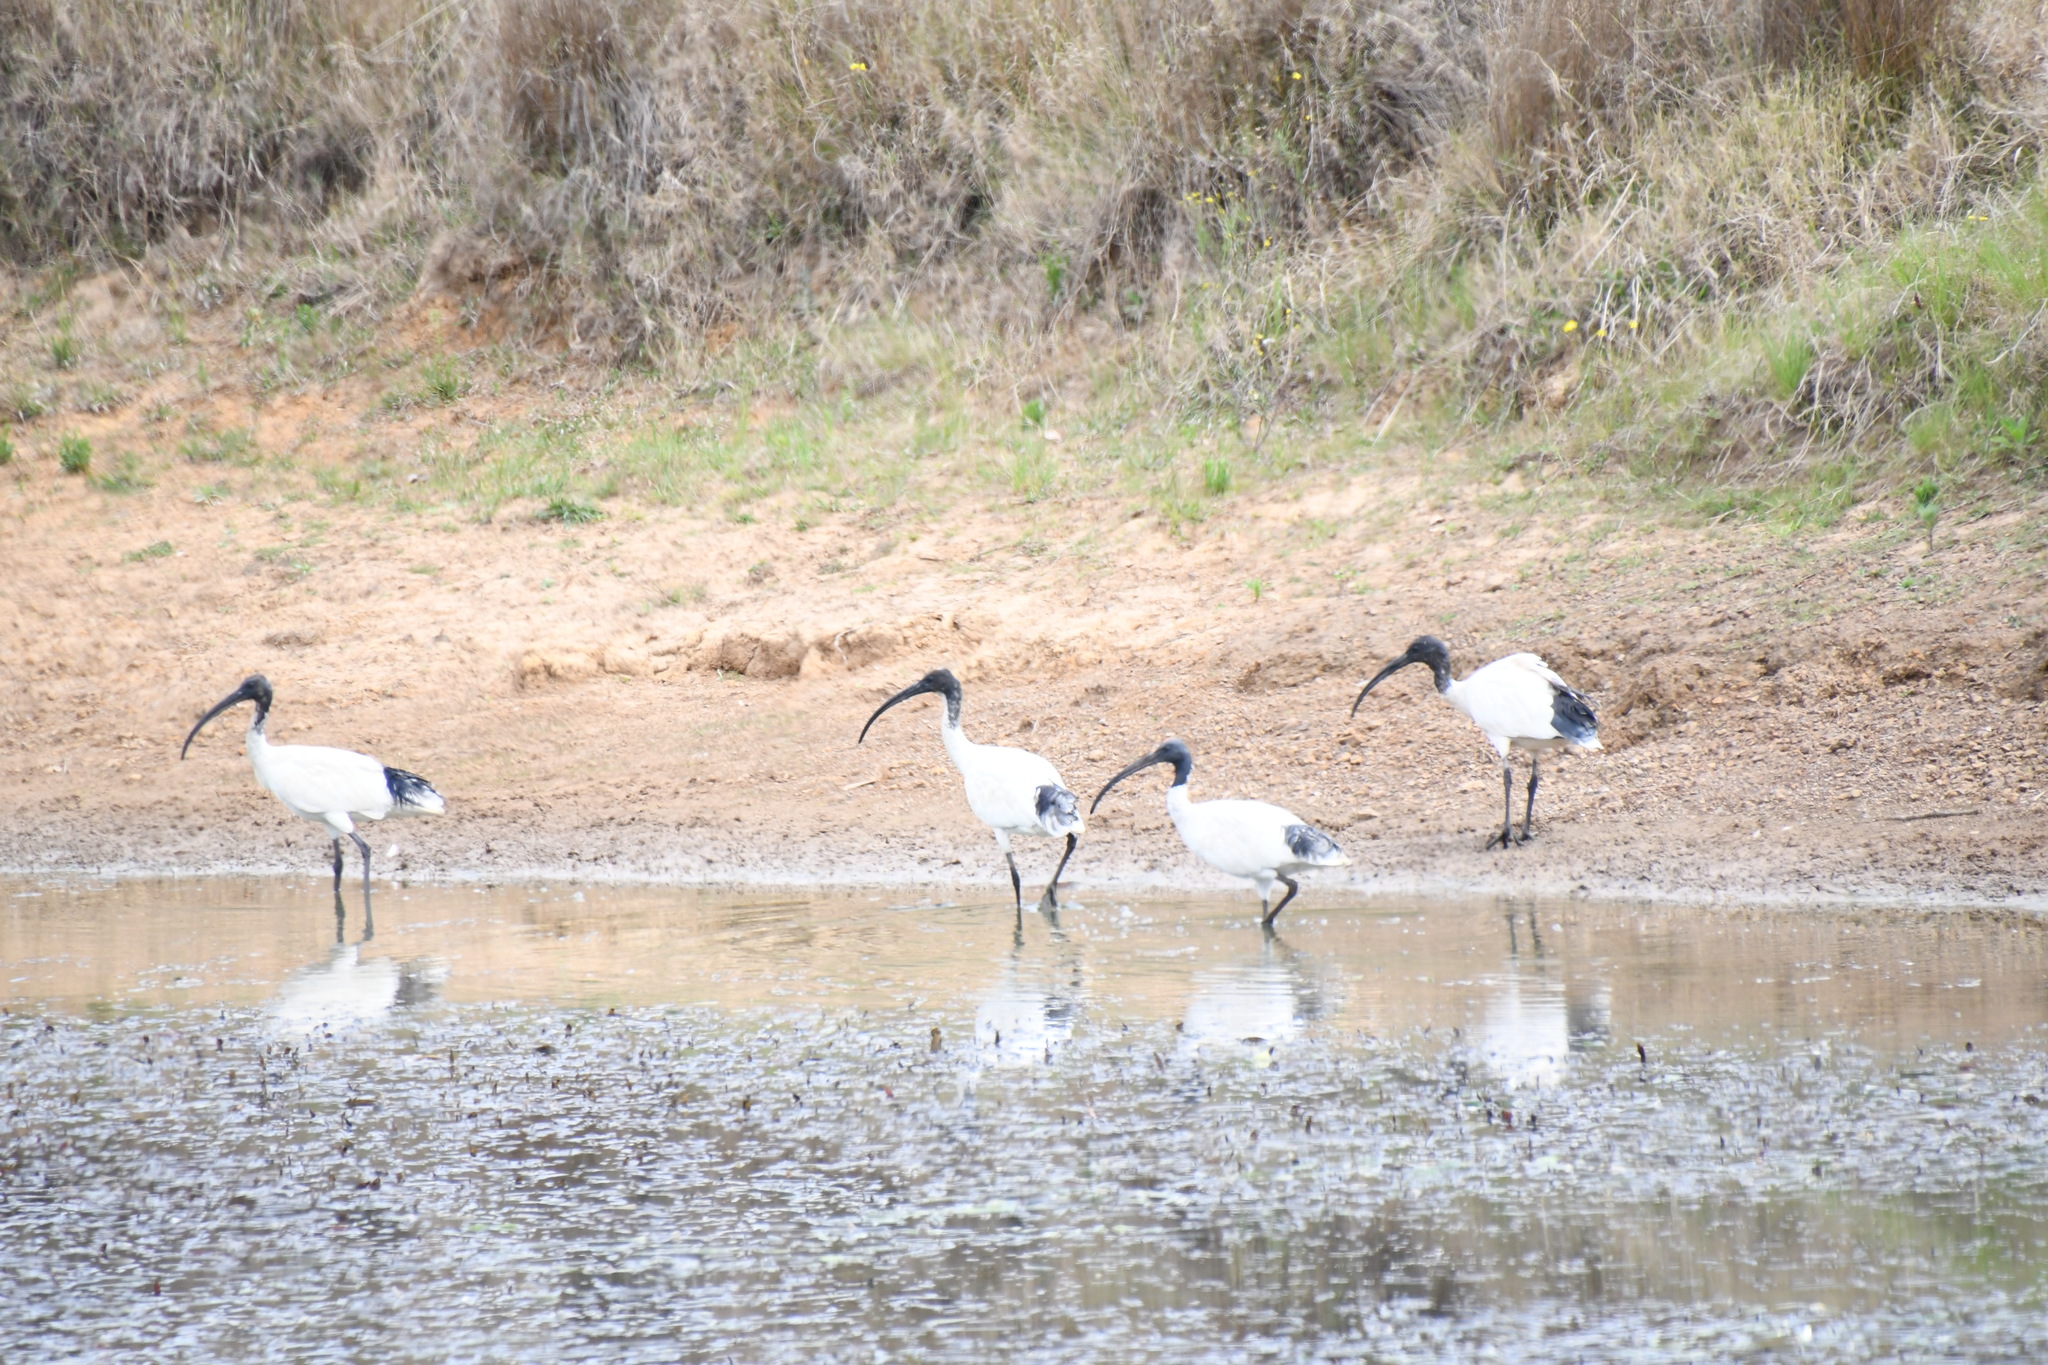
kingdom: Animalia
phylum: Chordata
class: Aves
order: Pelecaniformes
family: Threskiornithidae
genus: Threskiornis
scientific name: Threskiornis molucca
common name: Australian white ibis
